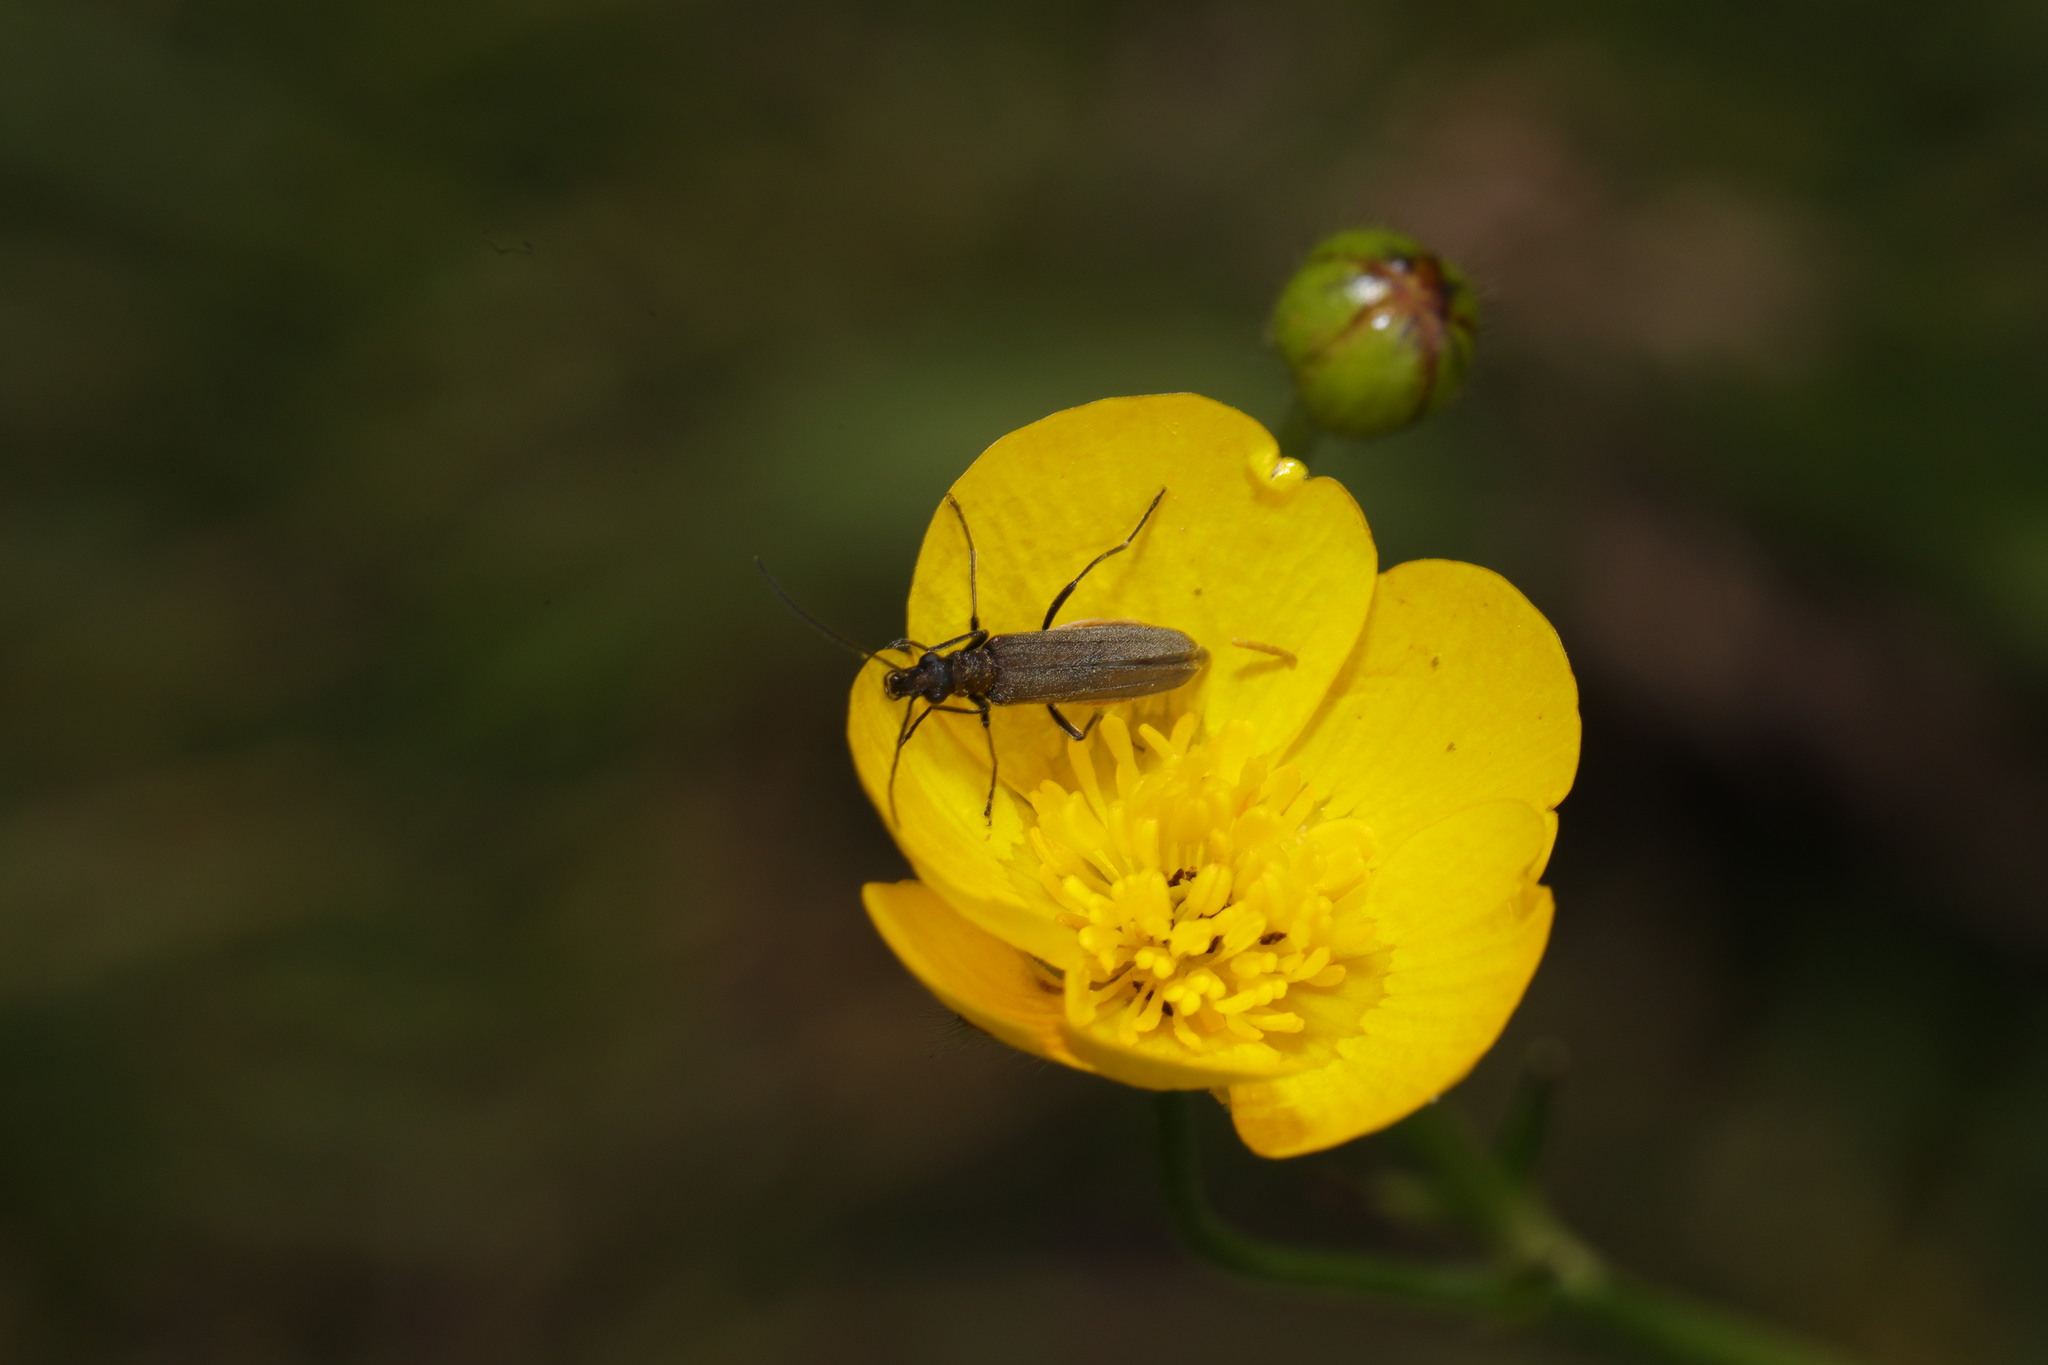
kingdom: Animalia
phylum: Arthropoda
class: Insecta
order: Coleoptera
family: Oedemeridae
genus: Oedemera
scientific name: Oedemera lurida
